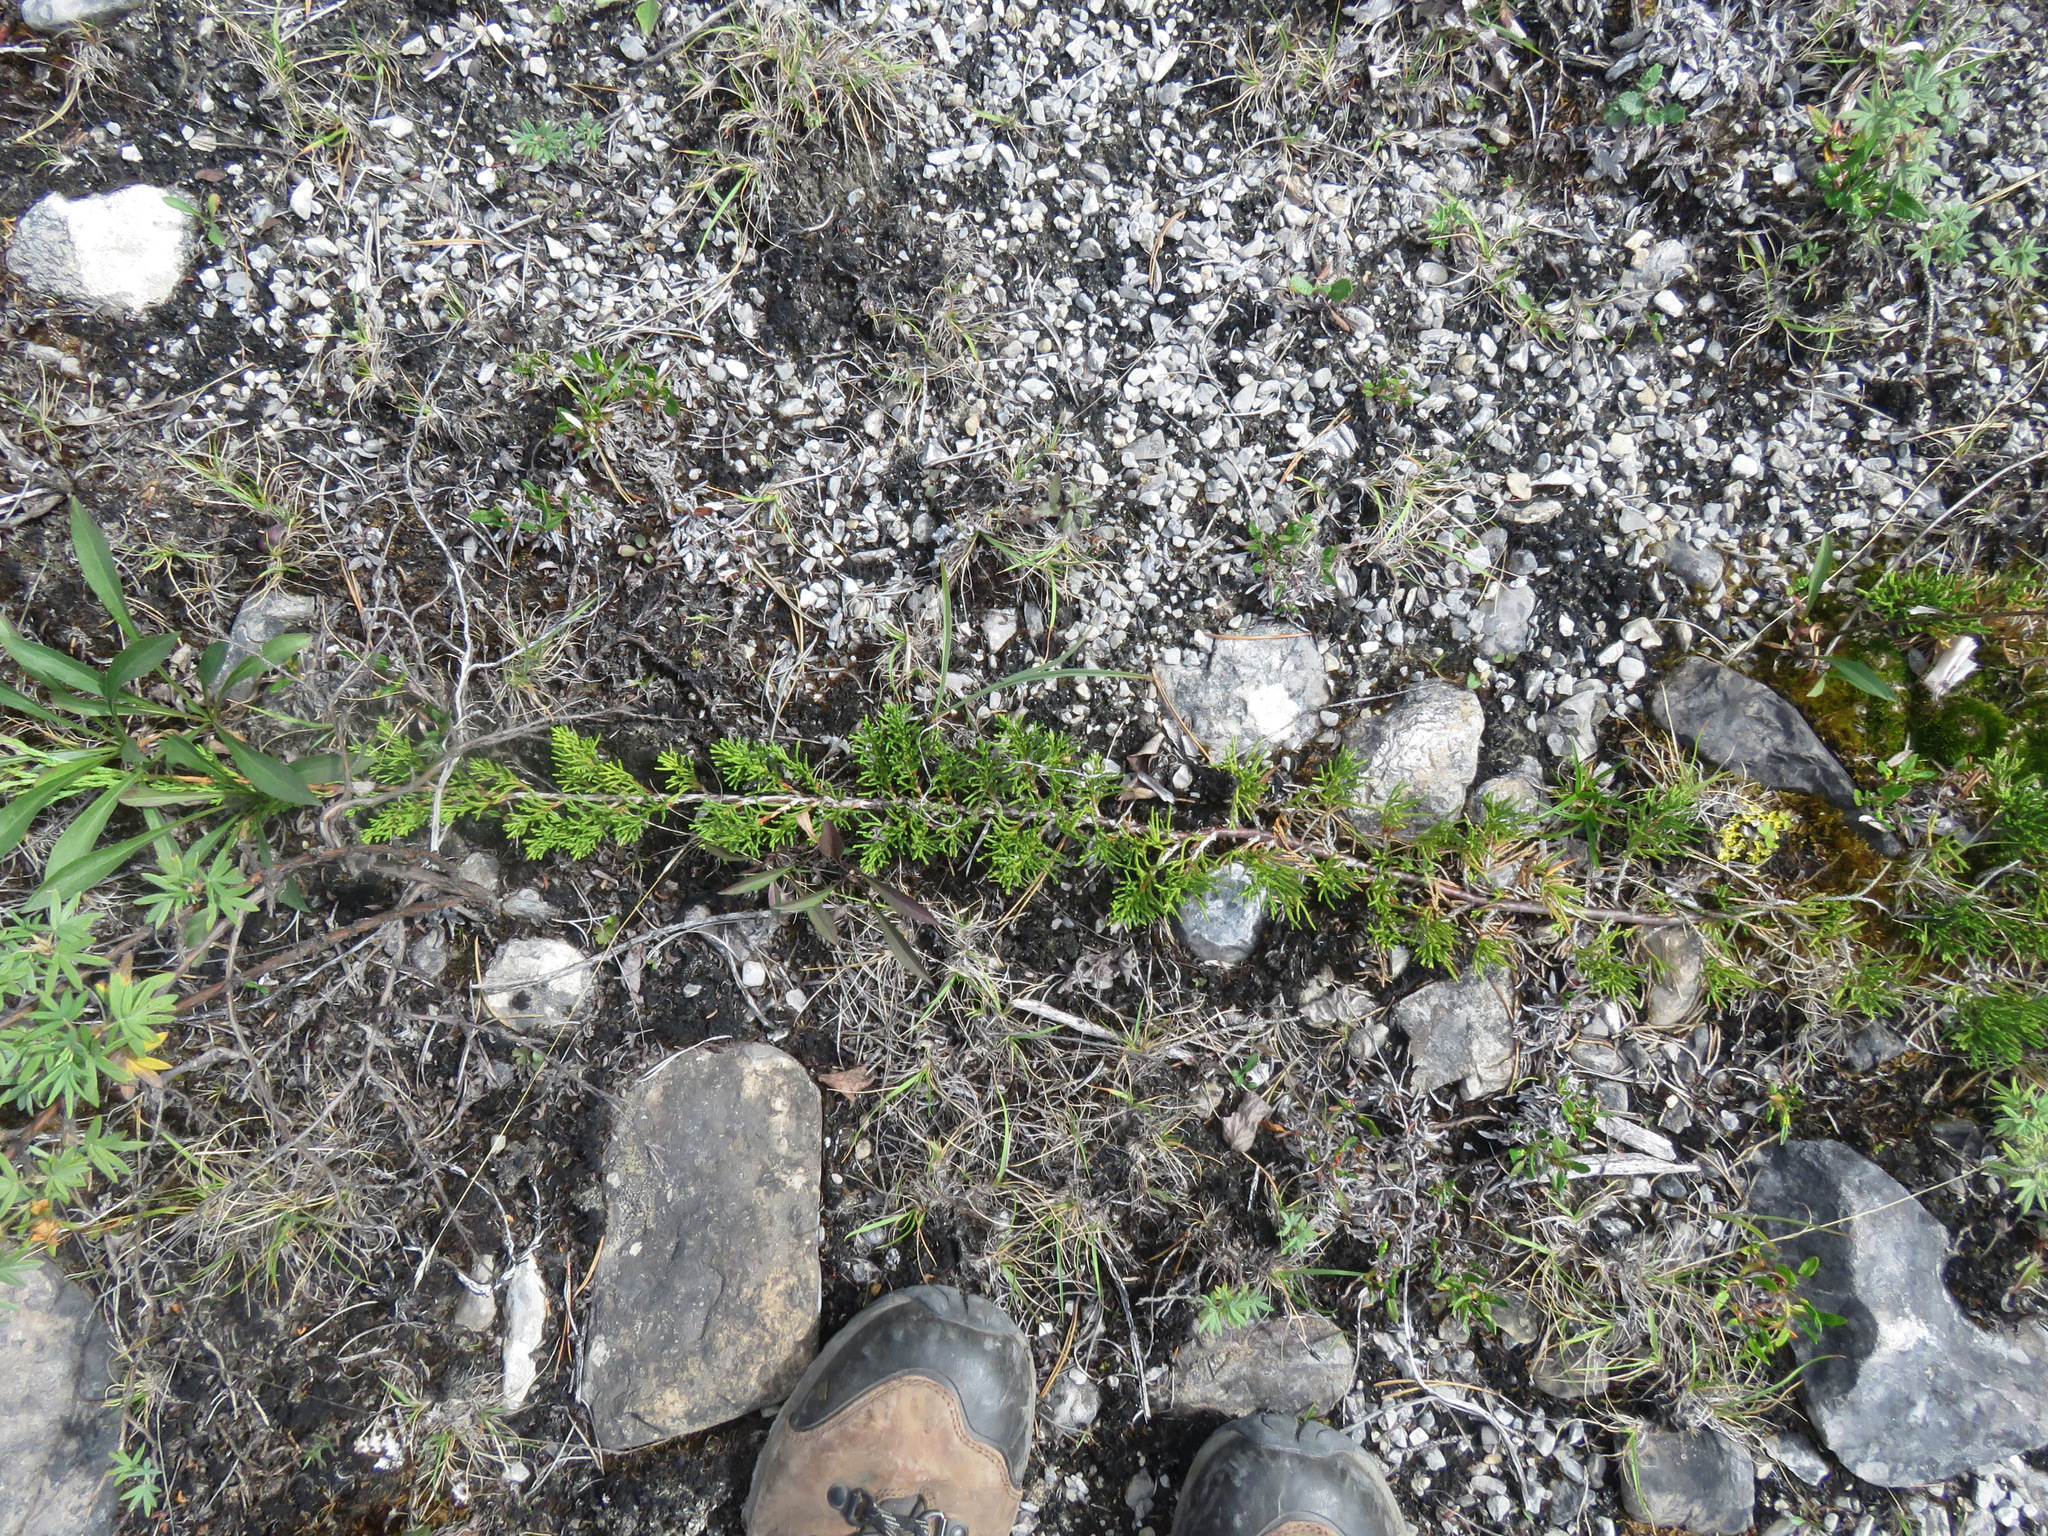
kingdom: Plantae
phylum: Tracheophyta
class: Pinopsida
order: Pinales
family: Cupressaceae
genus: Juniperus
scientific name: Juniperus horizontalis
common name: Creeping juniper
